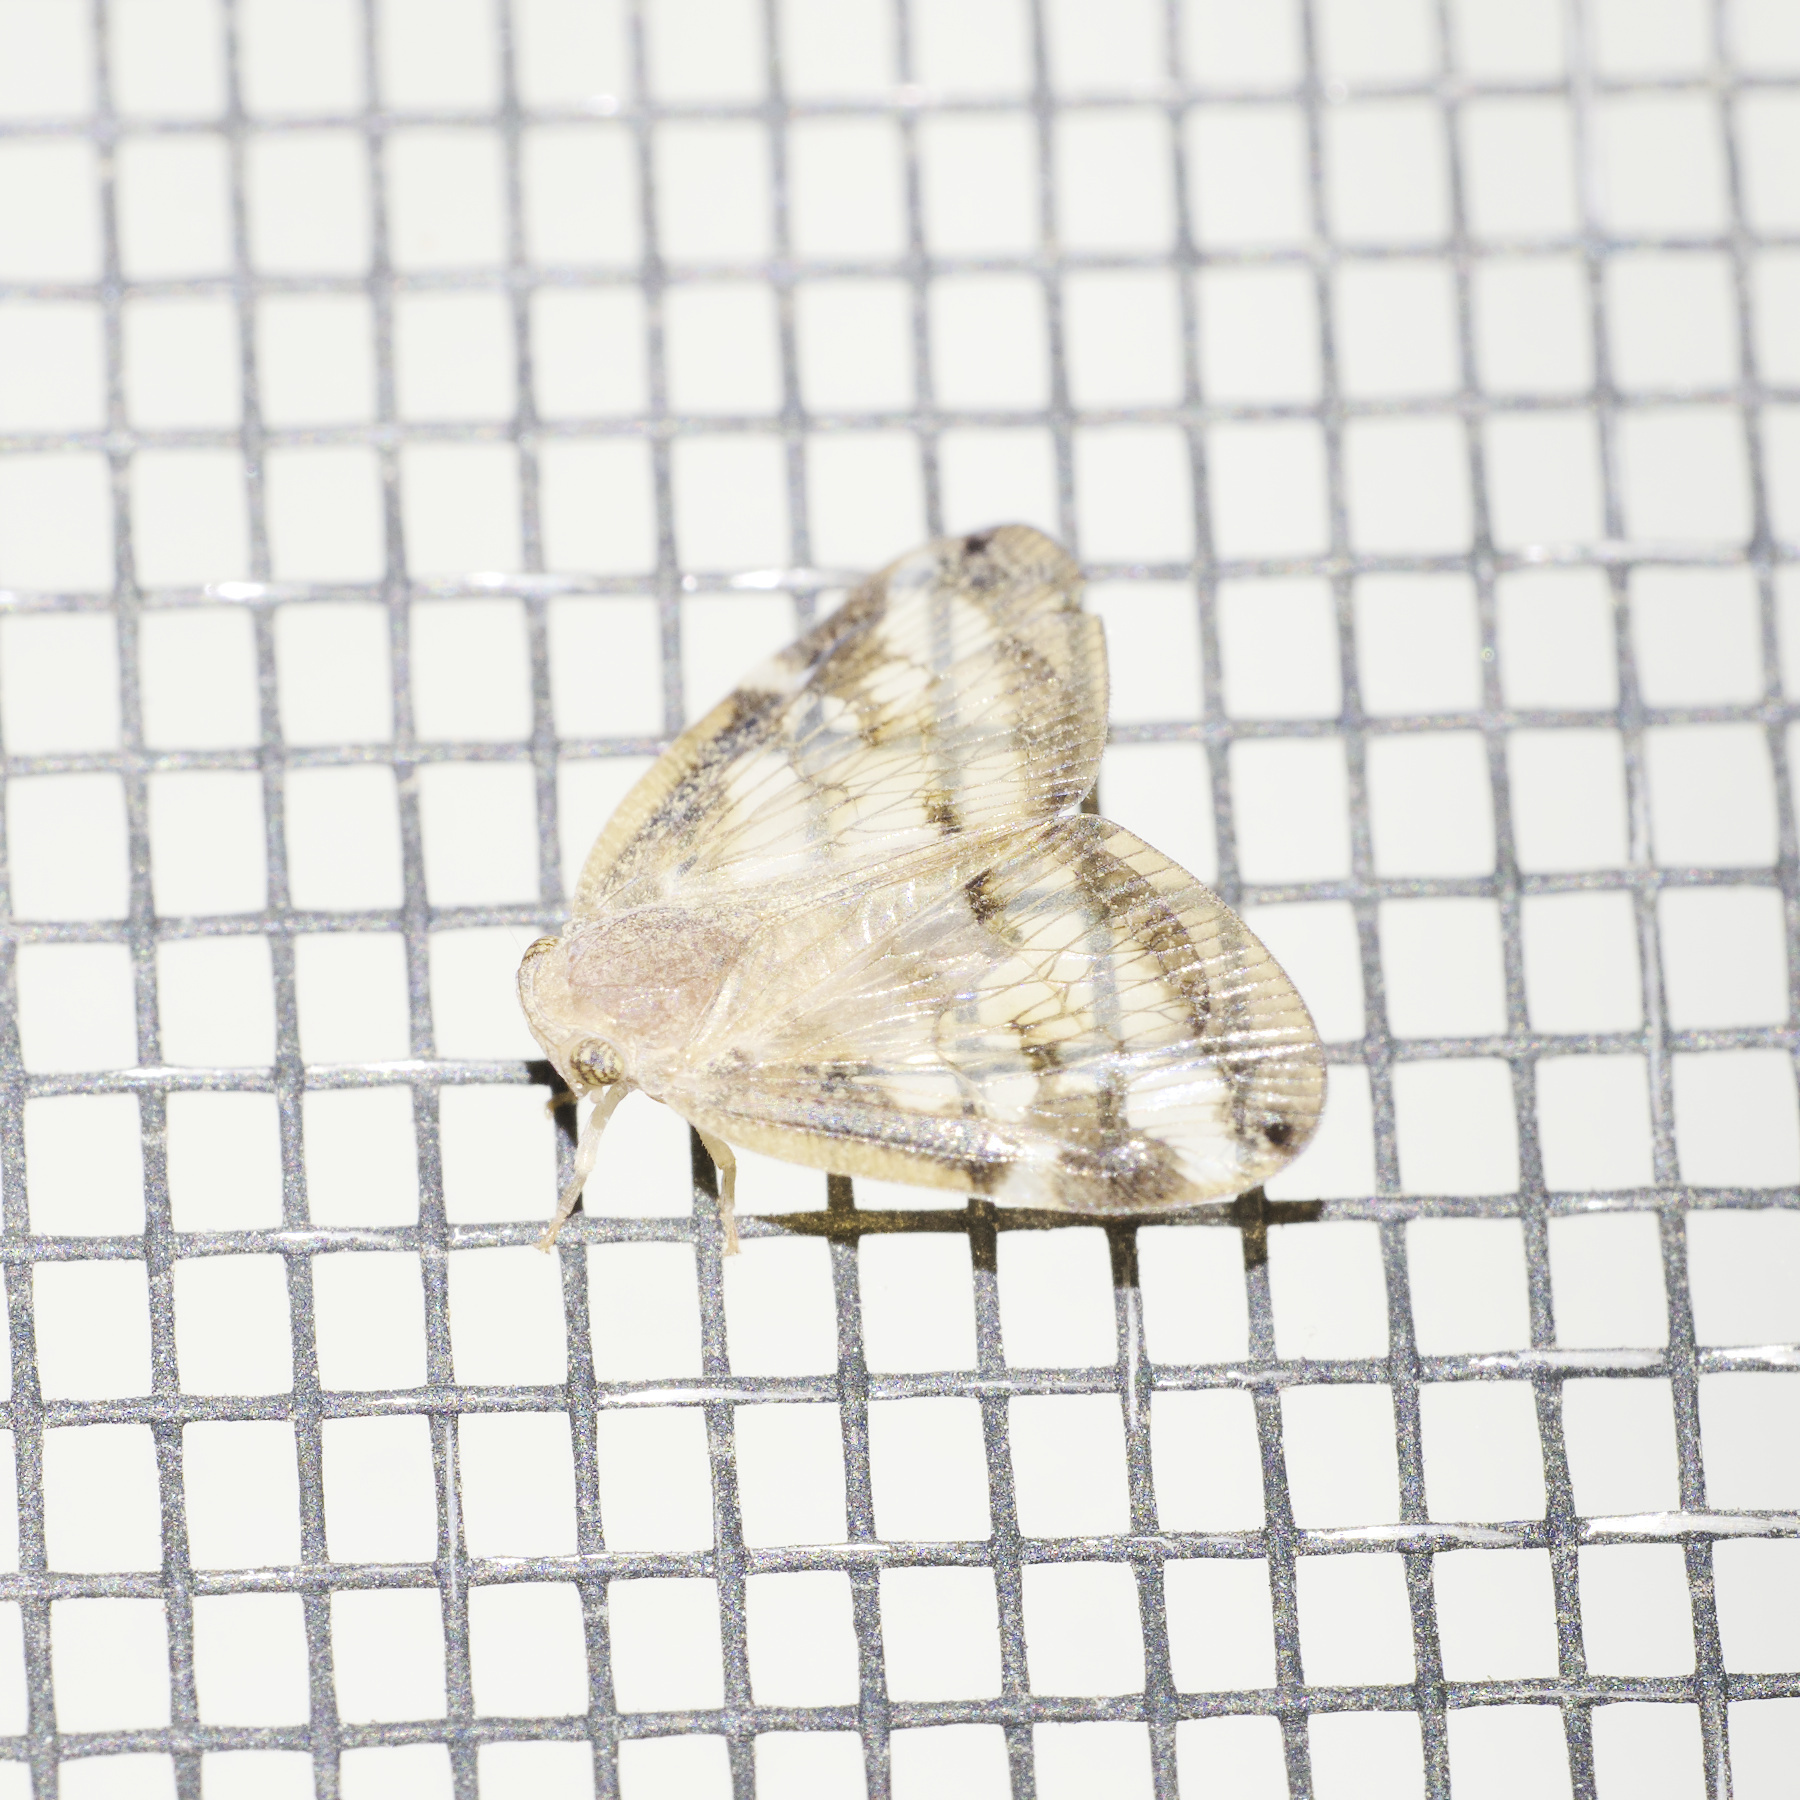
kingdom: Animalia
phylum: Arthropoda
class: Insecta
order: Hemiptera
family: Ricaniidae
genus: Scolypopa
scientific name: Scolypopa australis
